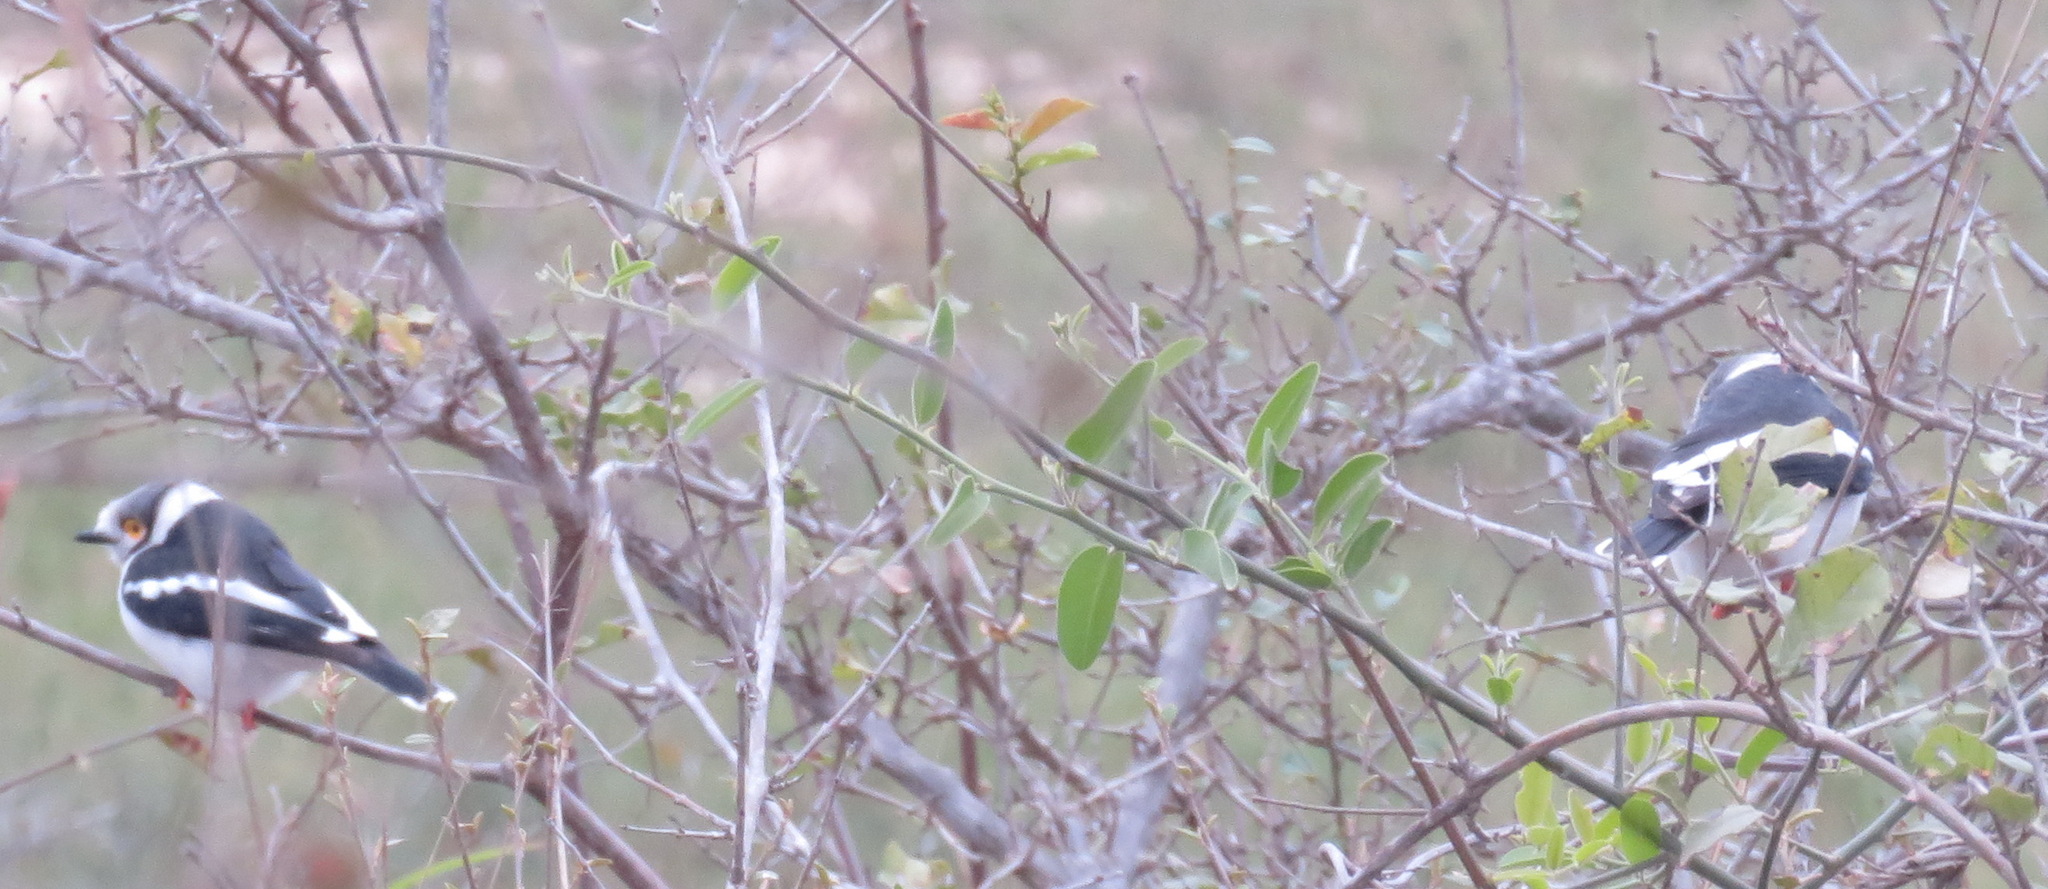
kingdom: Animalia
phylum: Chordata
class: Aves
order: Passeriformes
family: Prionopidae
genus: Prionops
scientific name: Prionops plumatus
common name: White-crested helmetshrike
